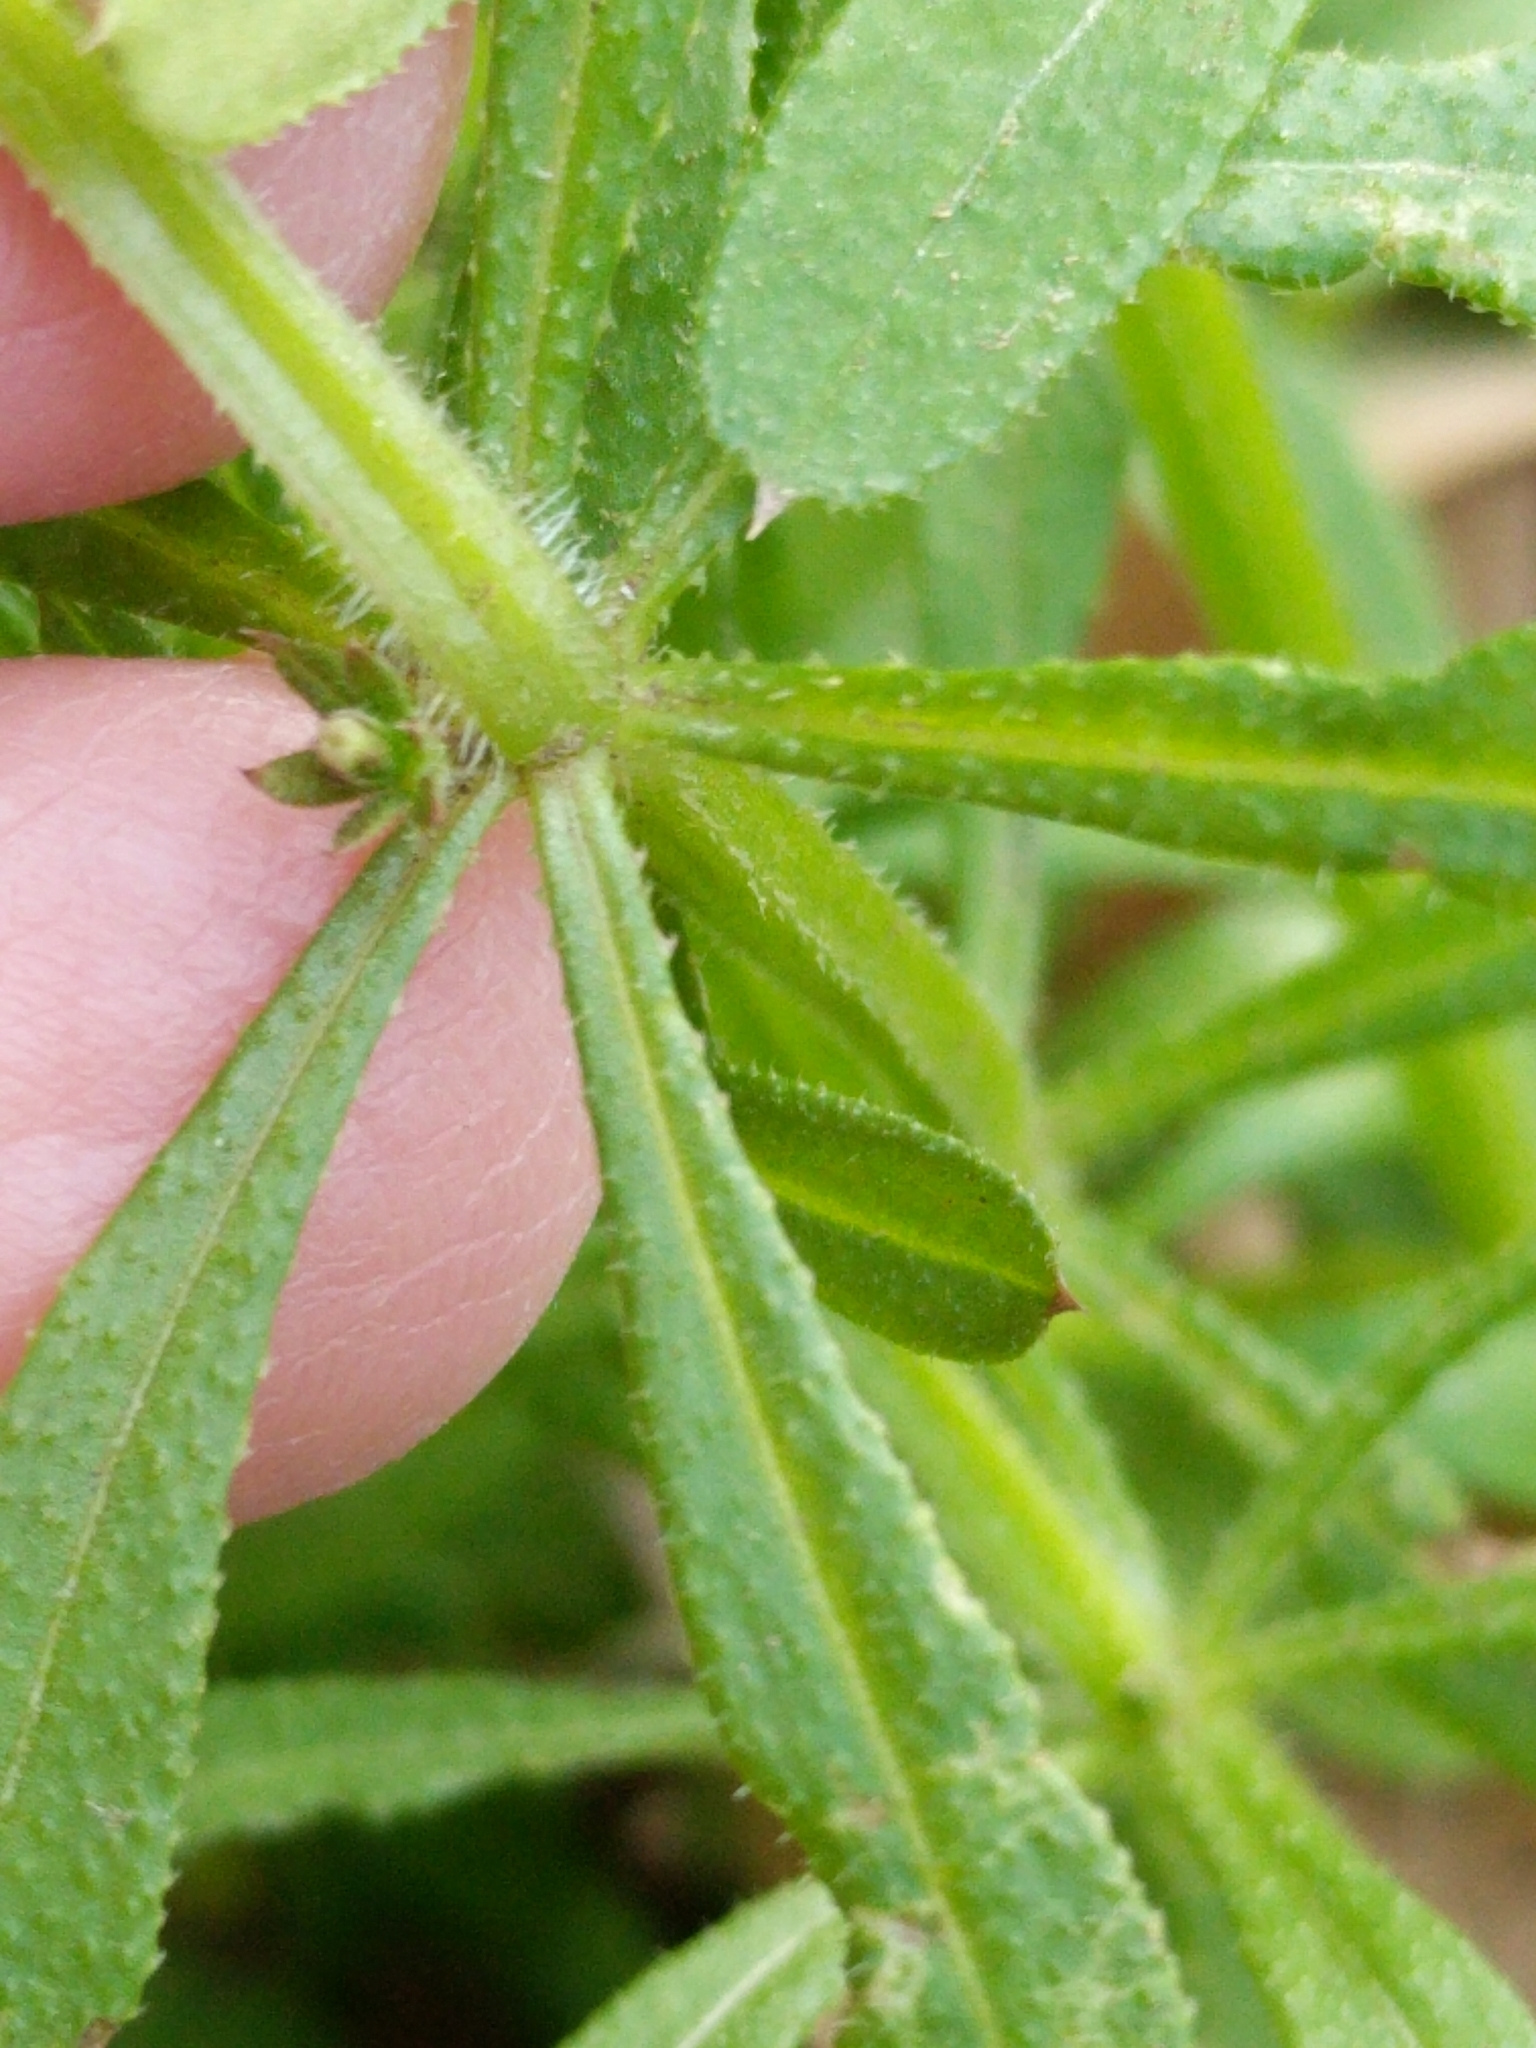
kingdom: Plantae
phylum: Tracheophyta
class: Magnoliopsida
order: Gentianales
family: Rubiaceae
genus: Galium
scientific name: Galium aparine
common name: Cleavers
